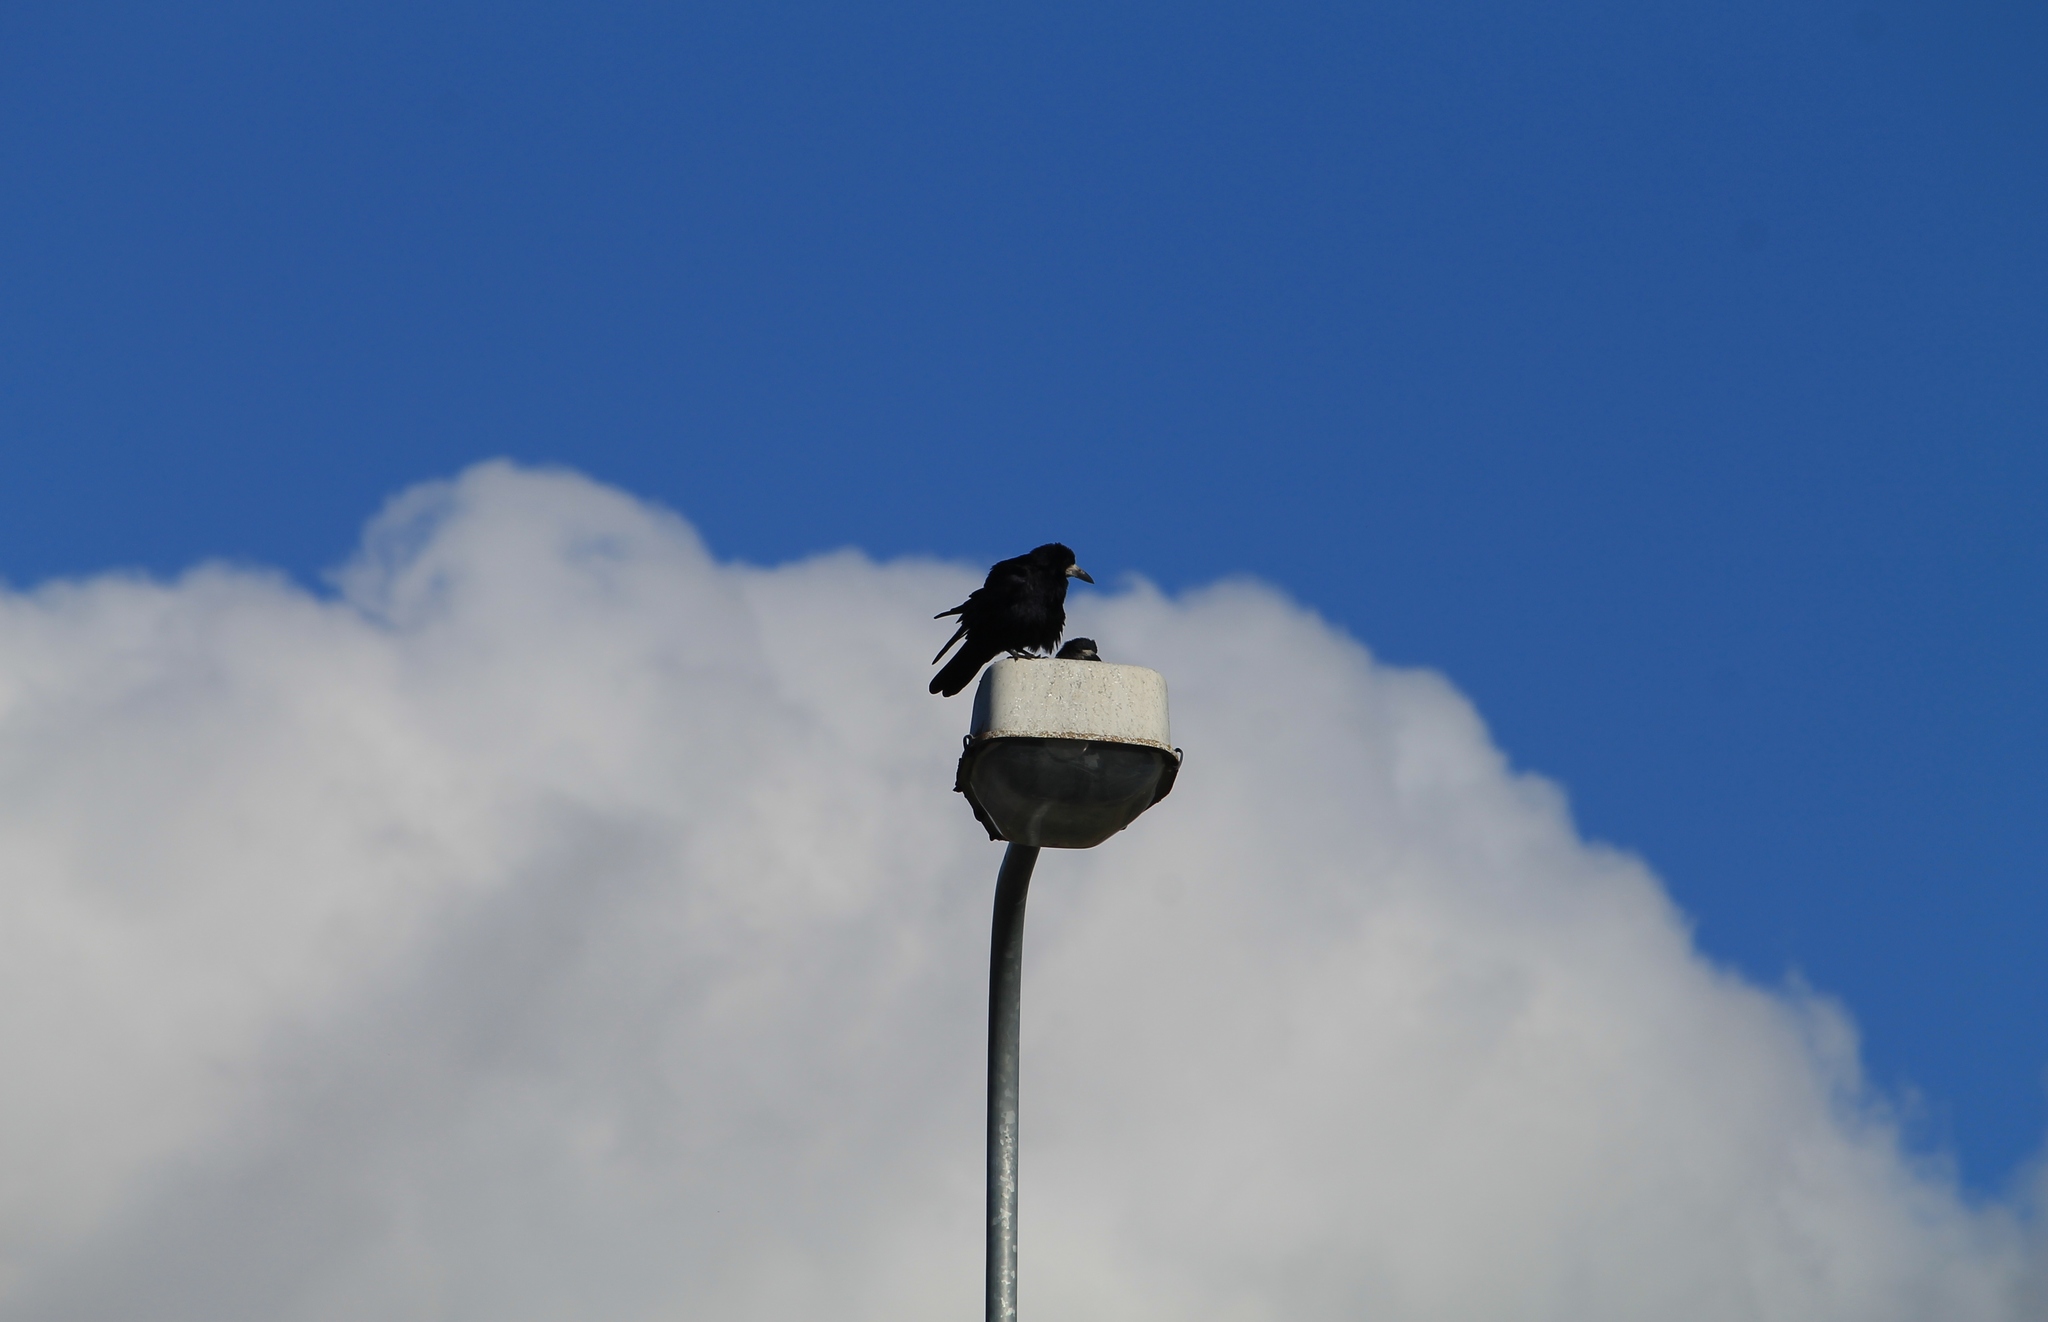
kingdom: Animalia
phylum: Chordata
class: Aves
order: Passeriformes
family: Corvidae
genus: Corvus
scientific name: Corvus frugilegus
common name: Rook
